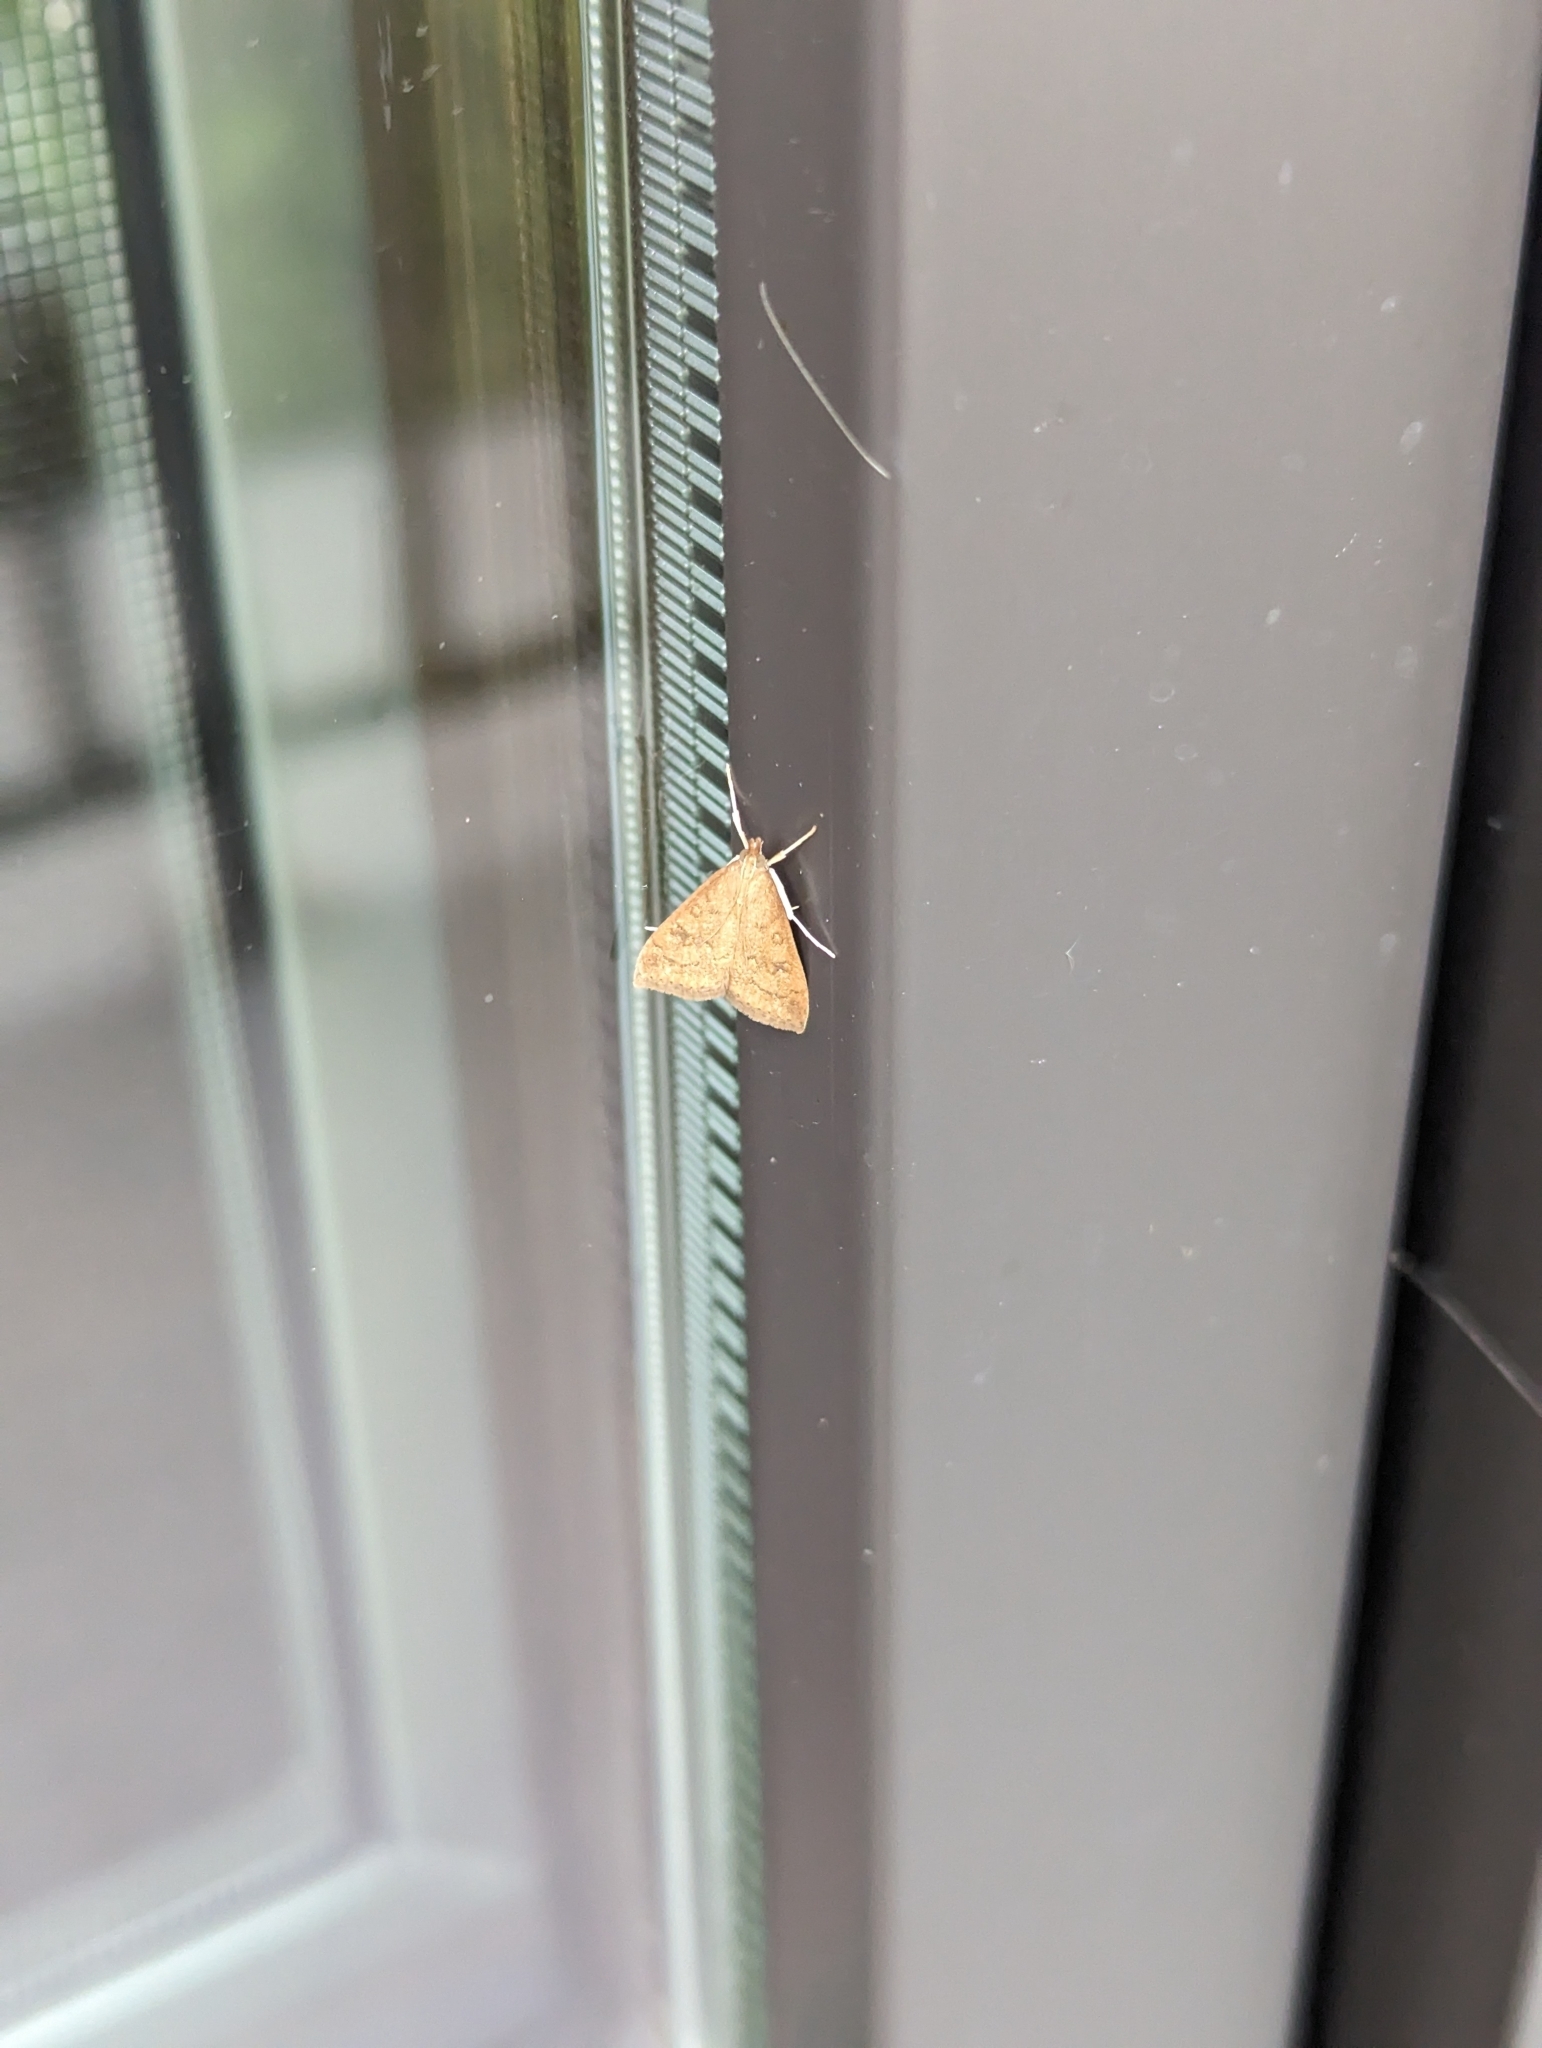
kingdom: Animalia
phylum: Arthropoda
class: Insecta
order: Lepidoptera
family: Crambidae
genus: Udea
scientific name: Udea rubigalis
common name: Celery leaftier moth
